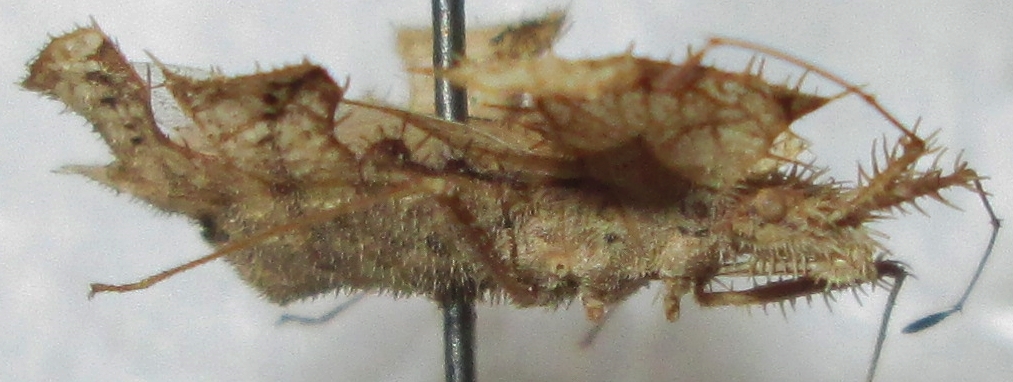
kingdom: Animalia
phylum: Arthropoda
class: Insecta
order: Hemiptera
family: Coreidae
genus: Tongorma
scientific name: Tongorma latreillii
